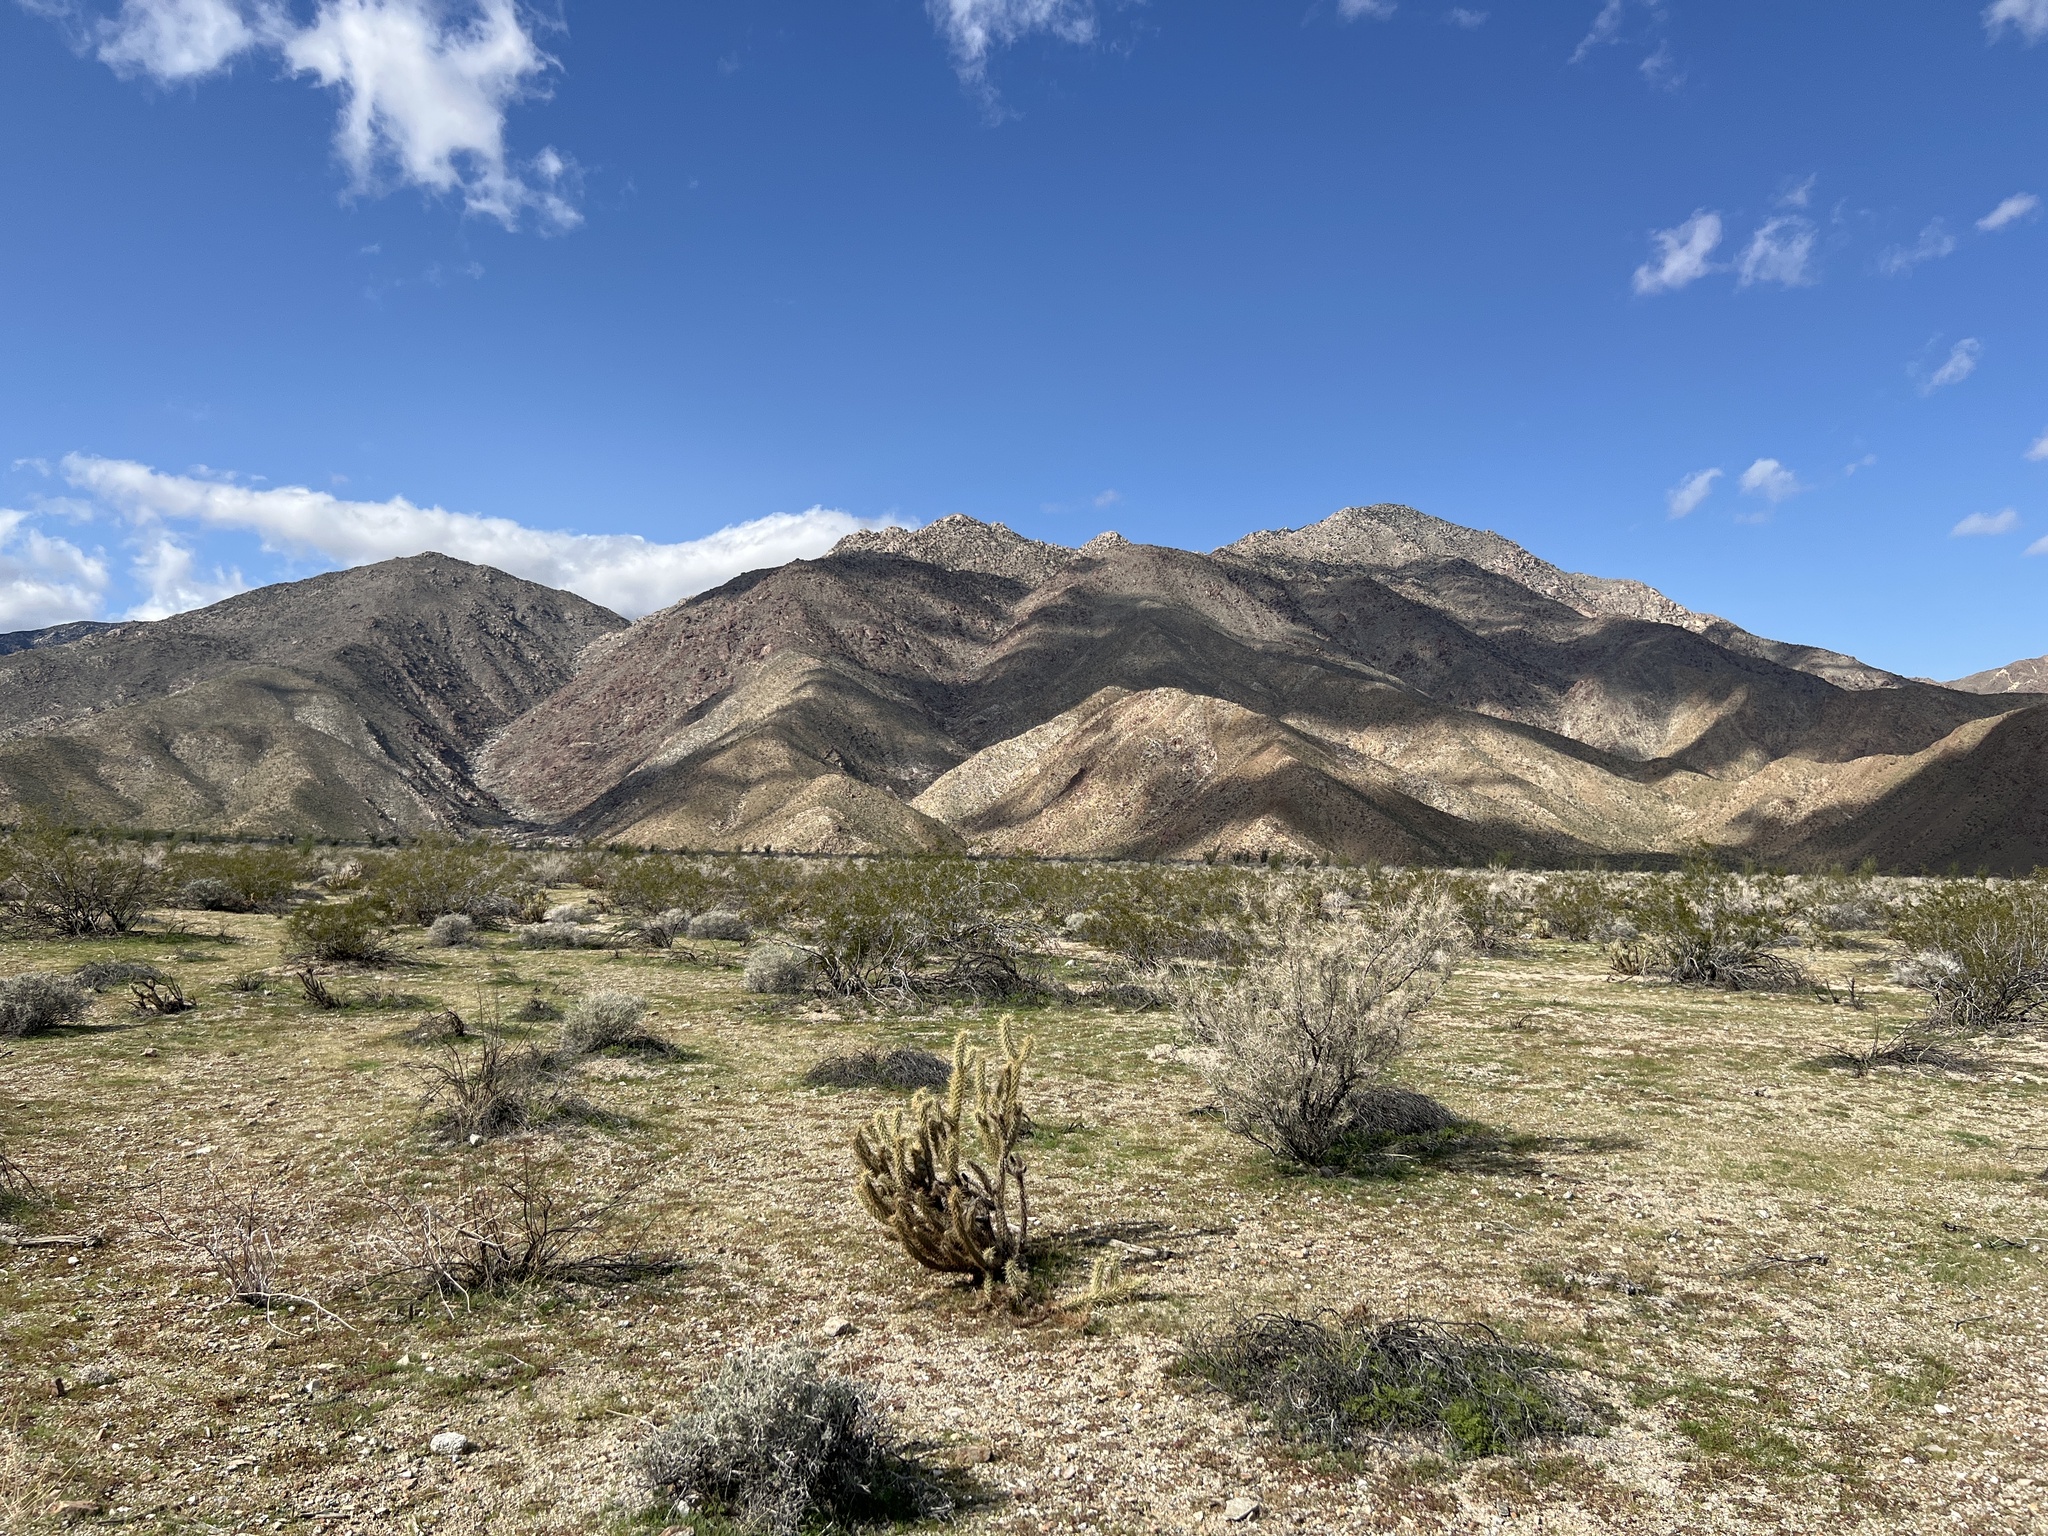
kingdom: Plantae
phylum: Tracheophyta
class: Magnoliopsida
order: Zygophyllales
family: Zygophyllaceae
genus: Larrea
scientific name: Larrea tridentata
